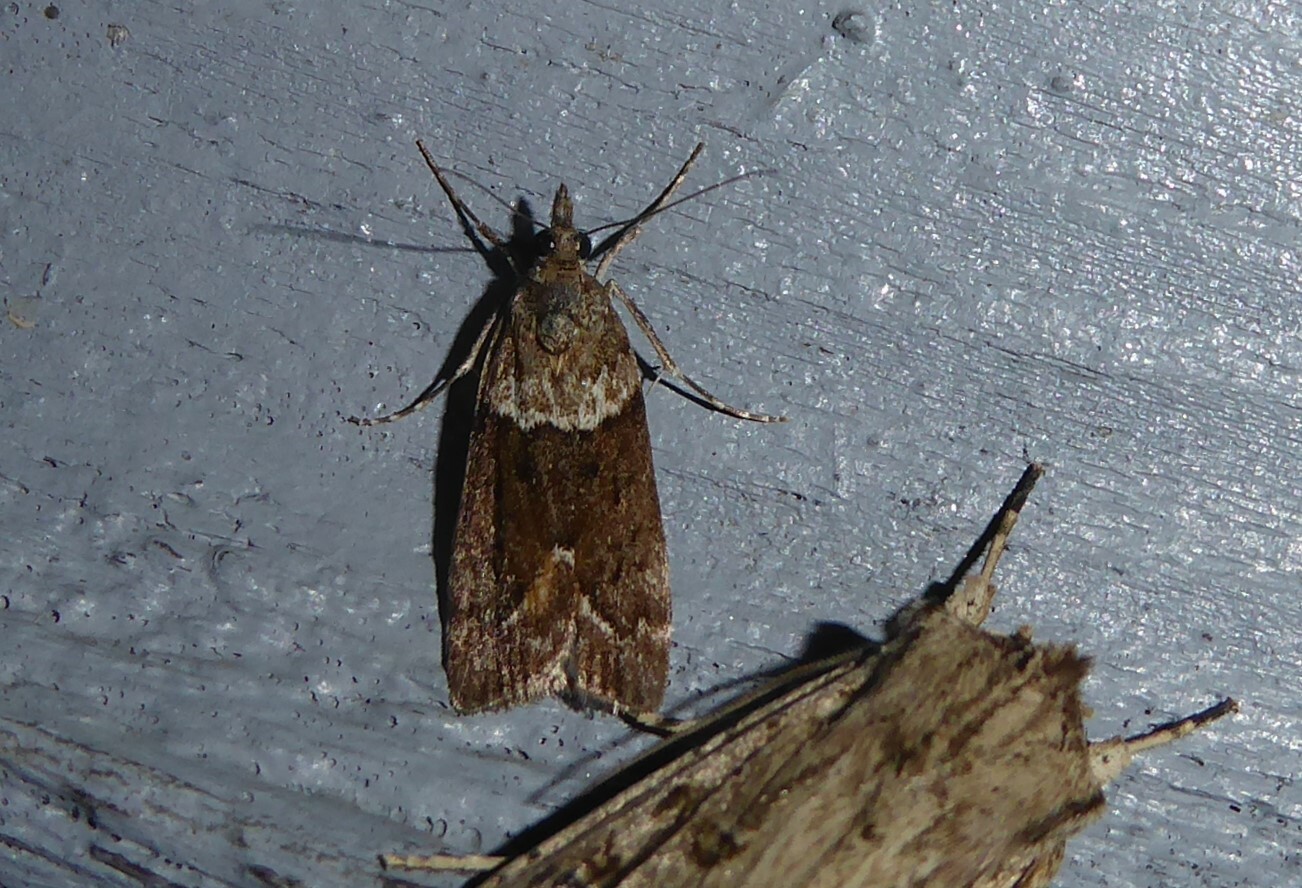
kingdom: Animalia
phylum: Arthropoda
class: Insecta
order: Lepidoptera
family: Crambidae
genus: Eudonia
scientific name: Eudonia submarginalis
